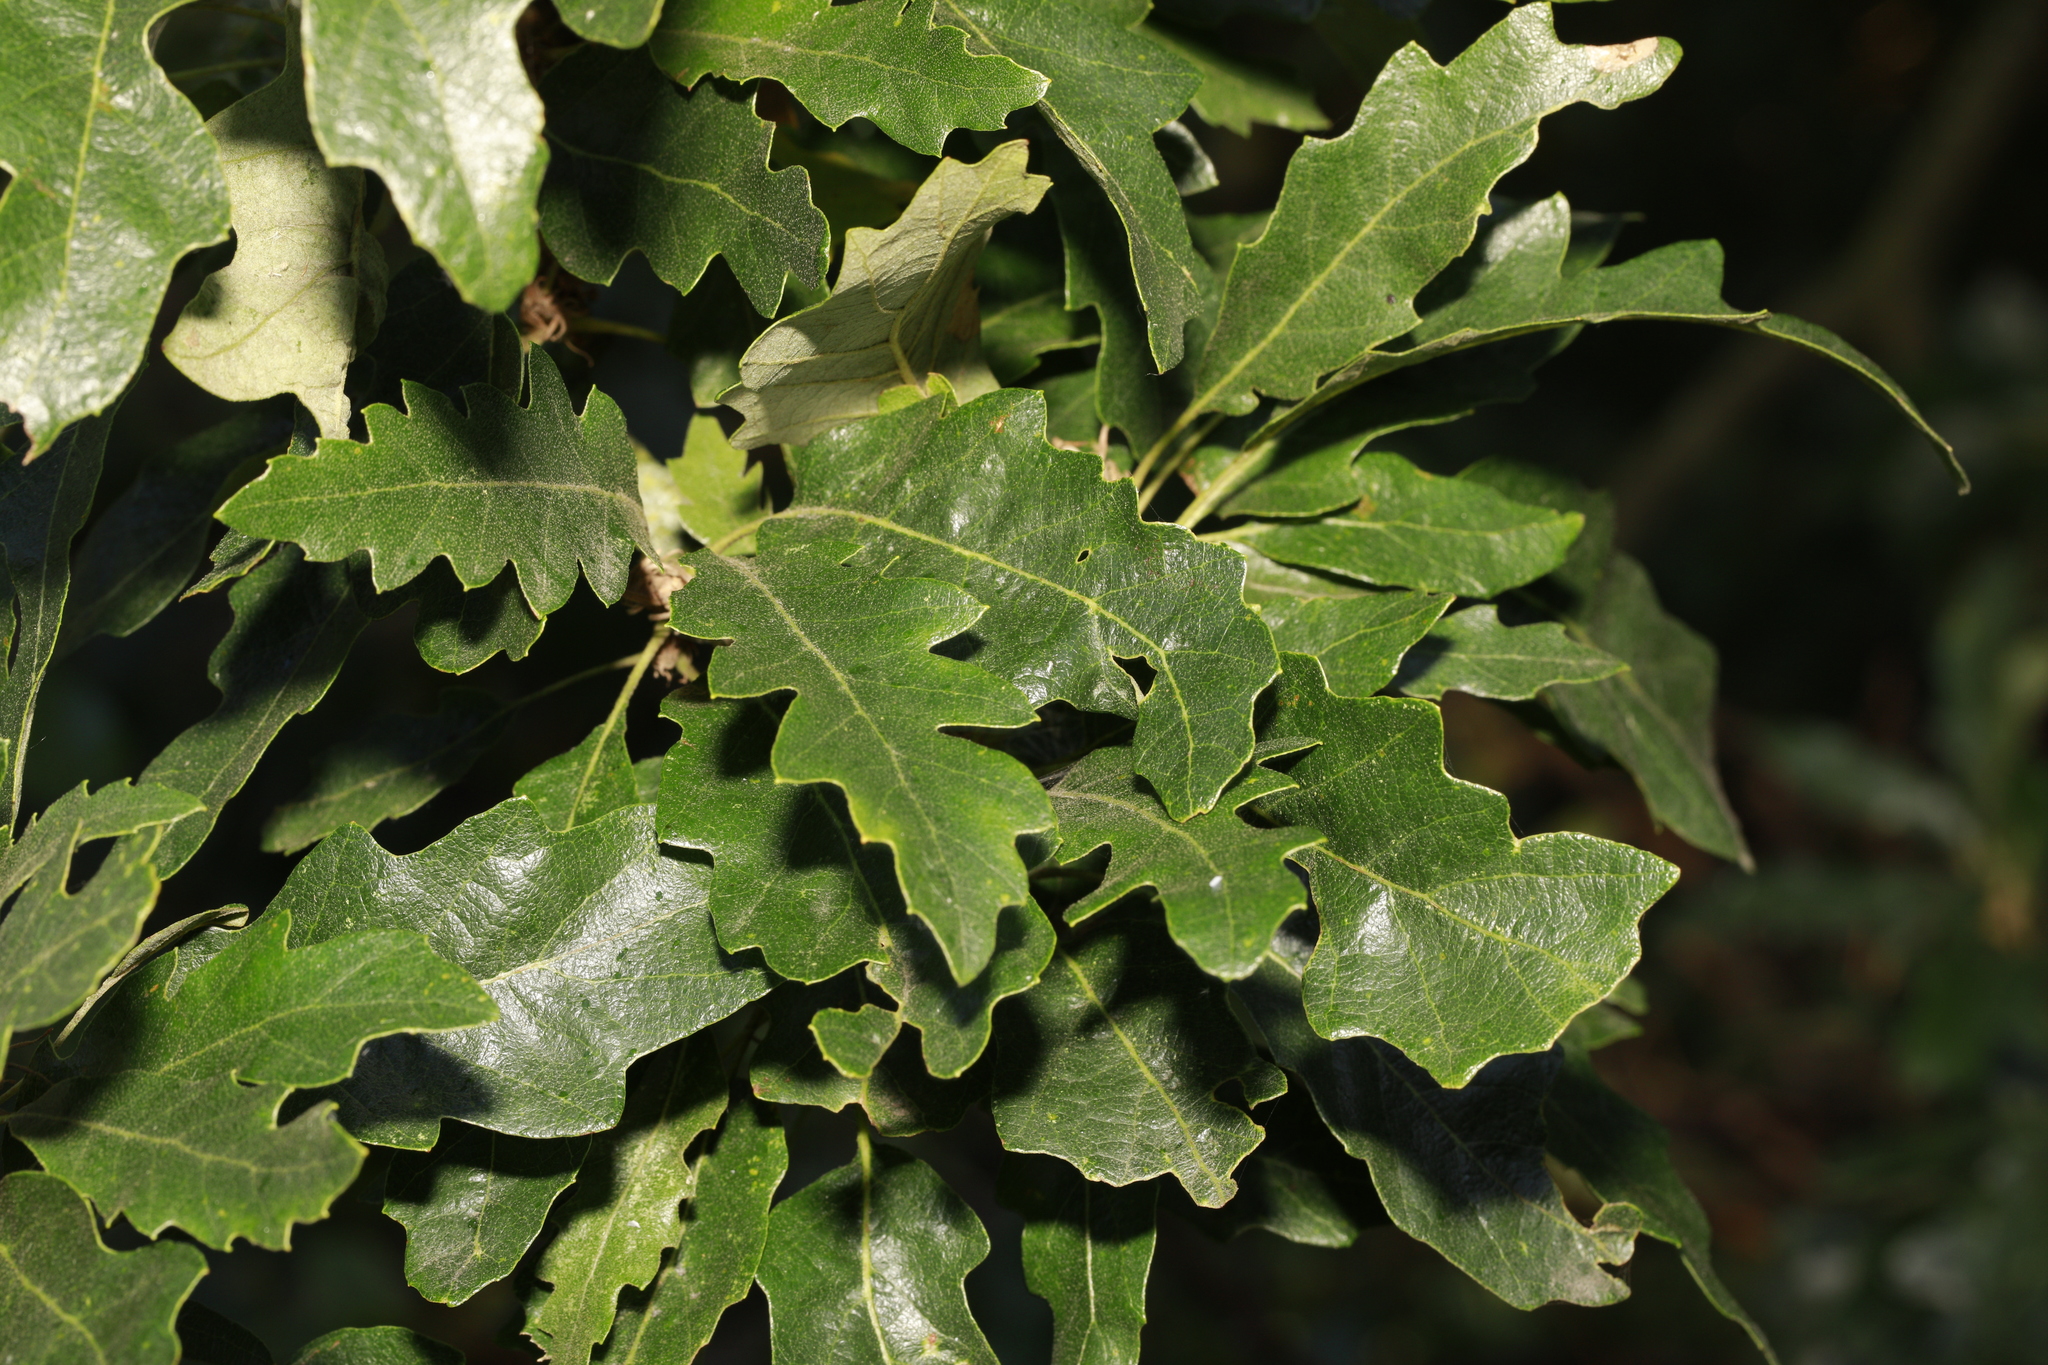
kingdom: Plantae
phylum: Tracheophyta
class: Magnoliopsida
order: Fagales
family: Fagaceae
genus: Quercus
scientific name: Quercus cerris
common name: Turkey oak
